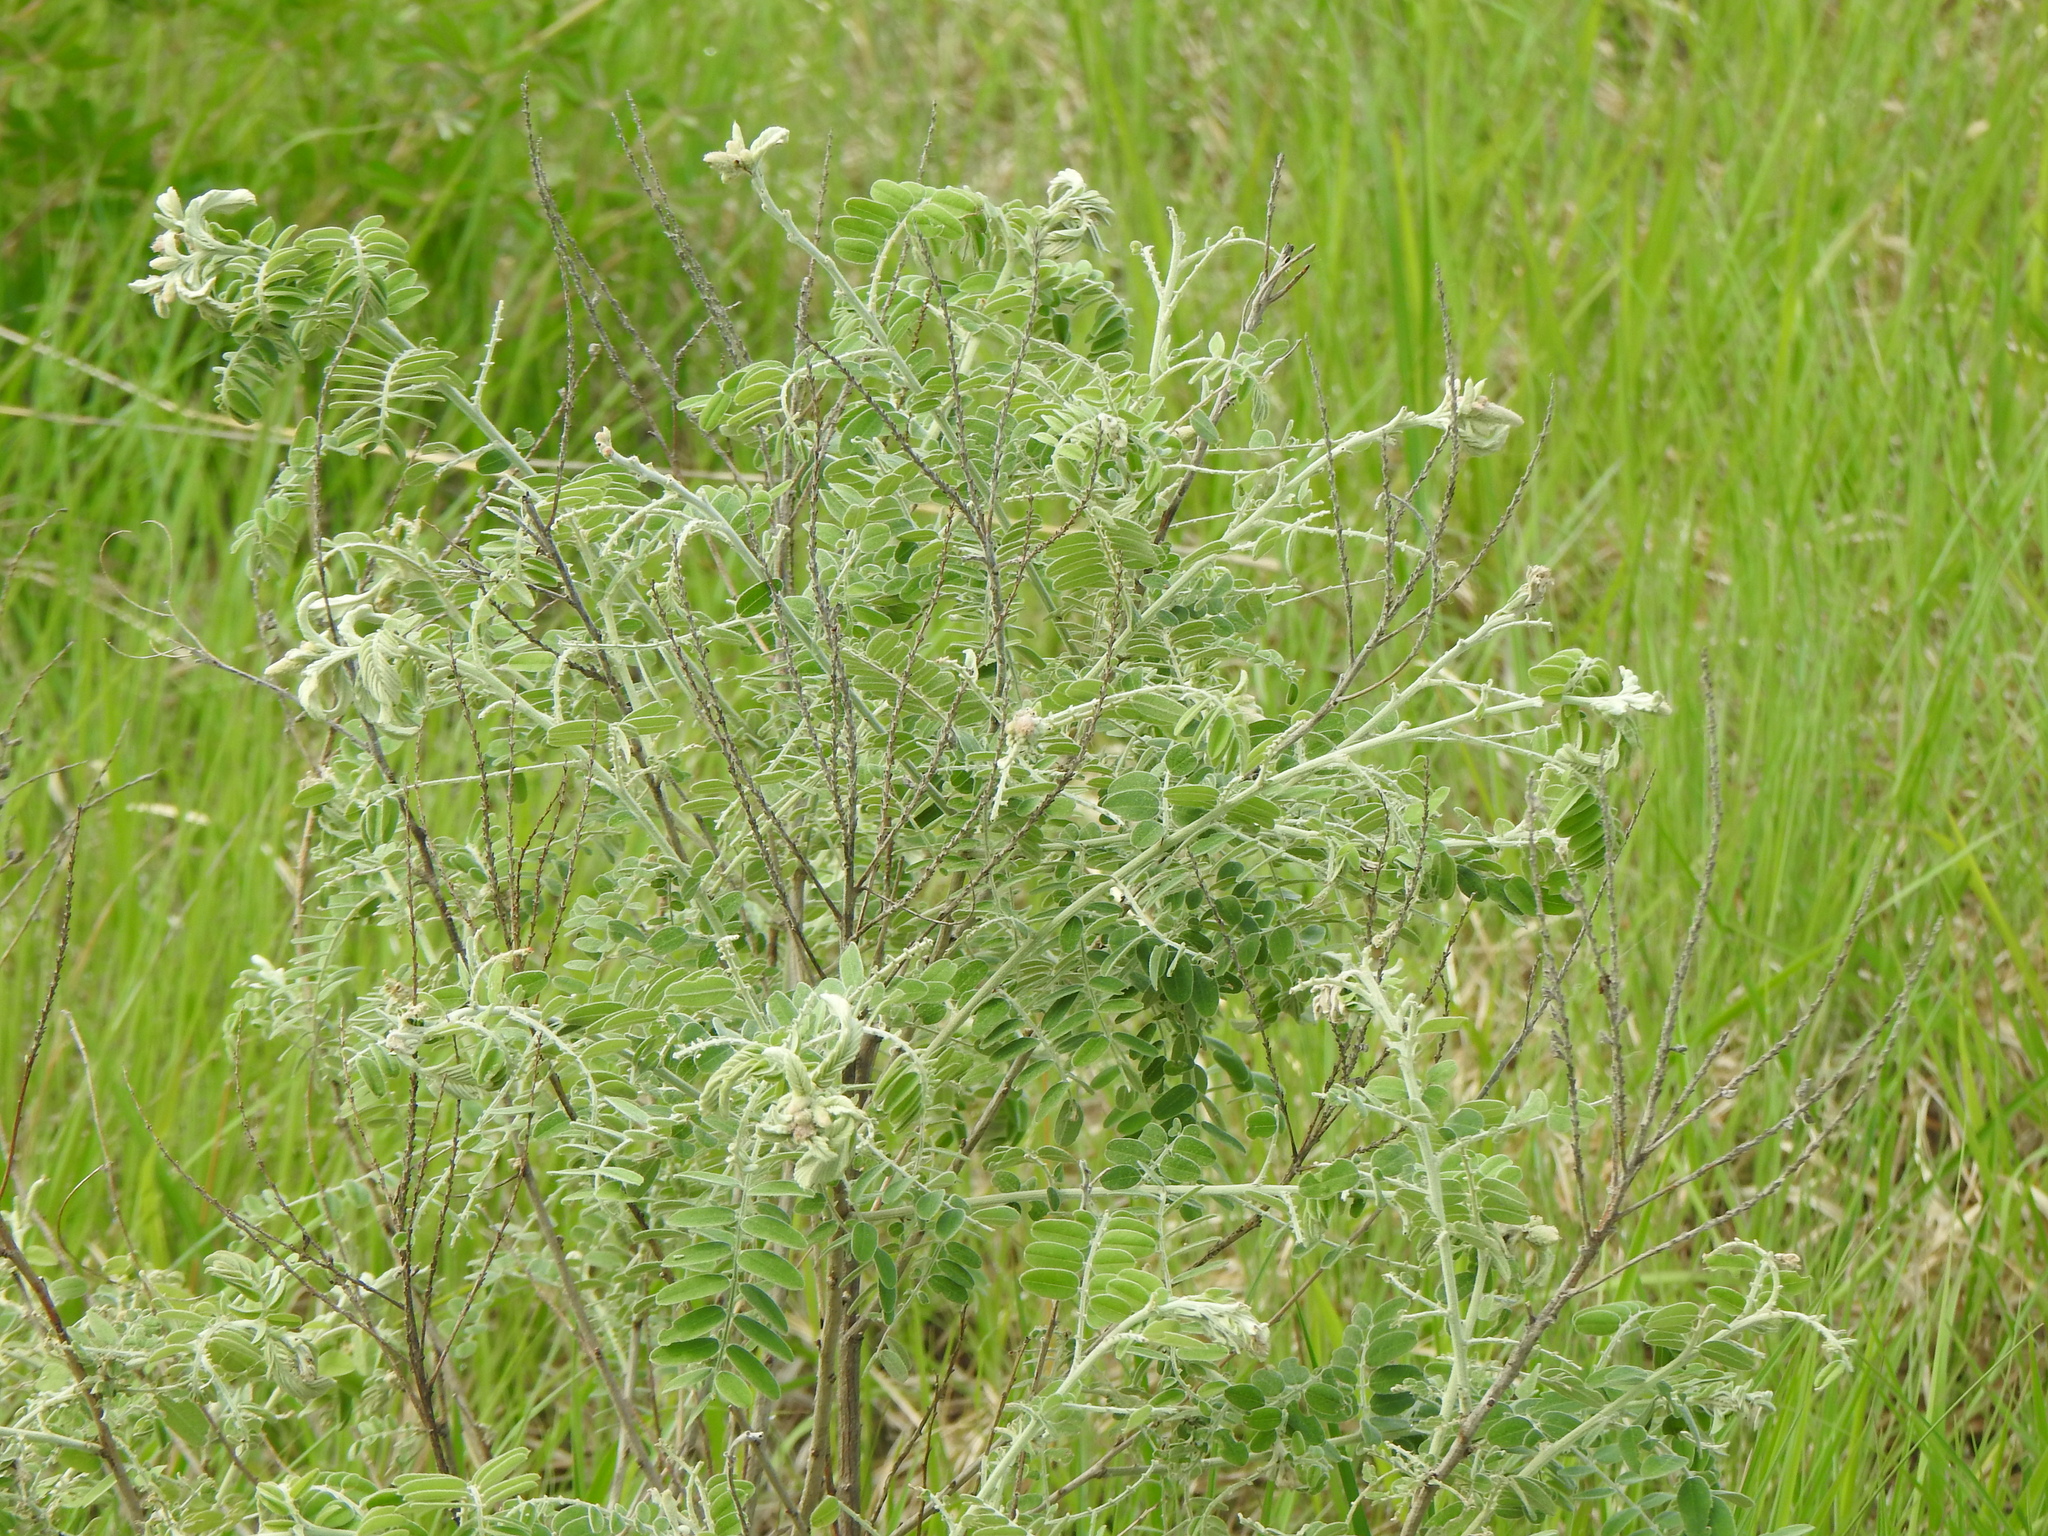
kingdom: Plantae
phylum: Tracheophyta
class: Magnoliopsida
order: Fabales
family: Fabaceae
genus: Amorpha
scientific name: Amorpha canescens
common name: Leadplant
